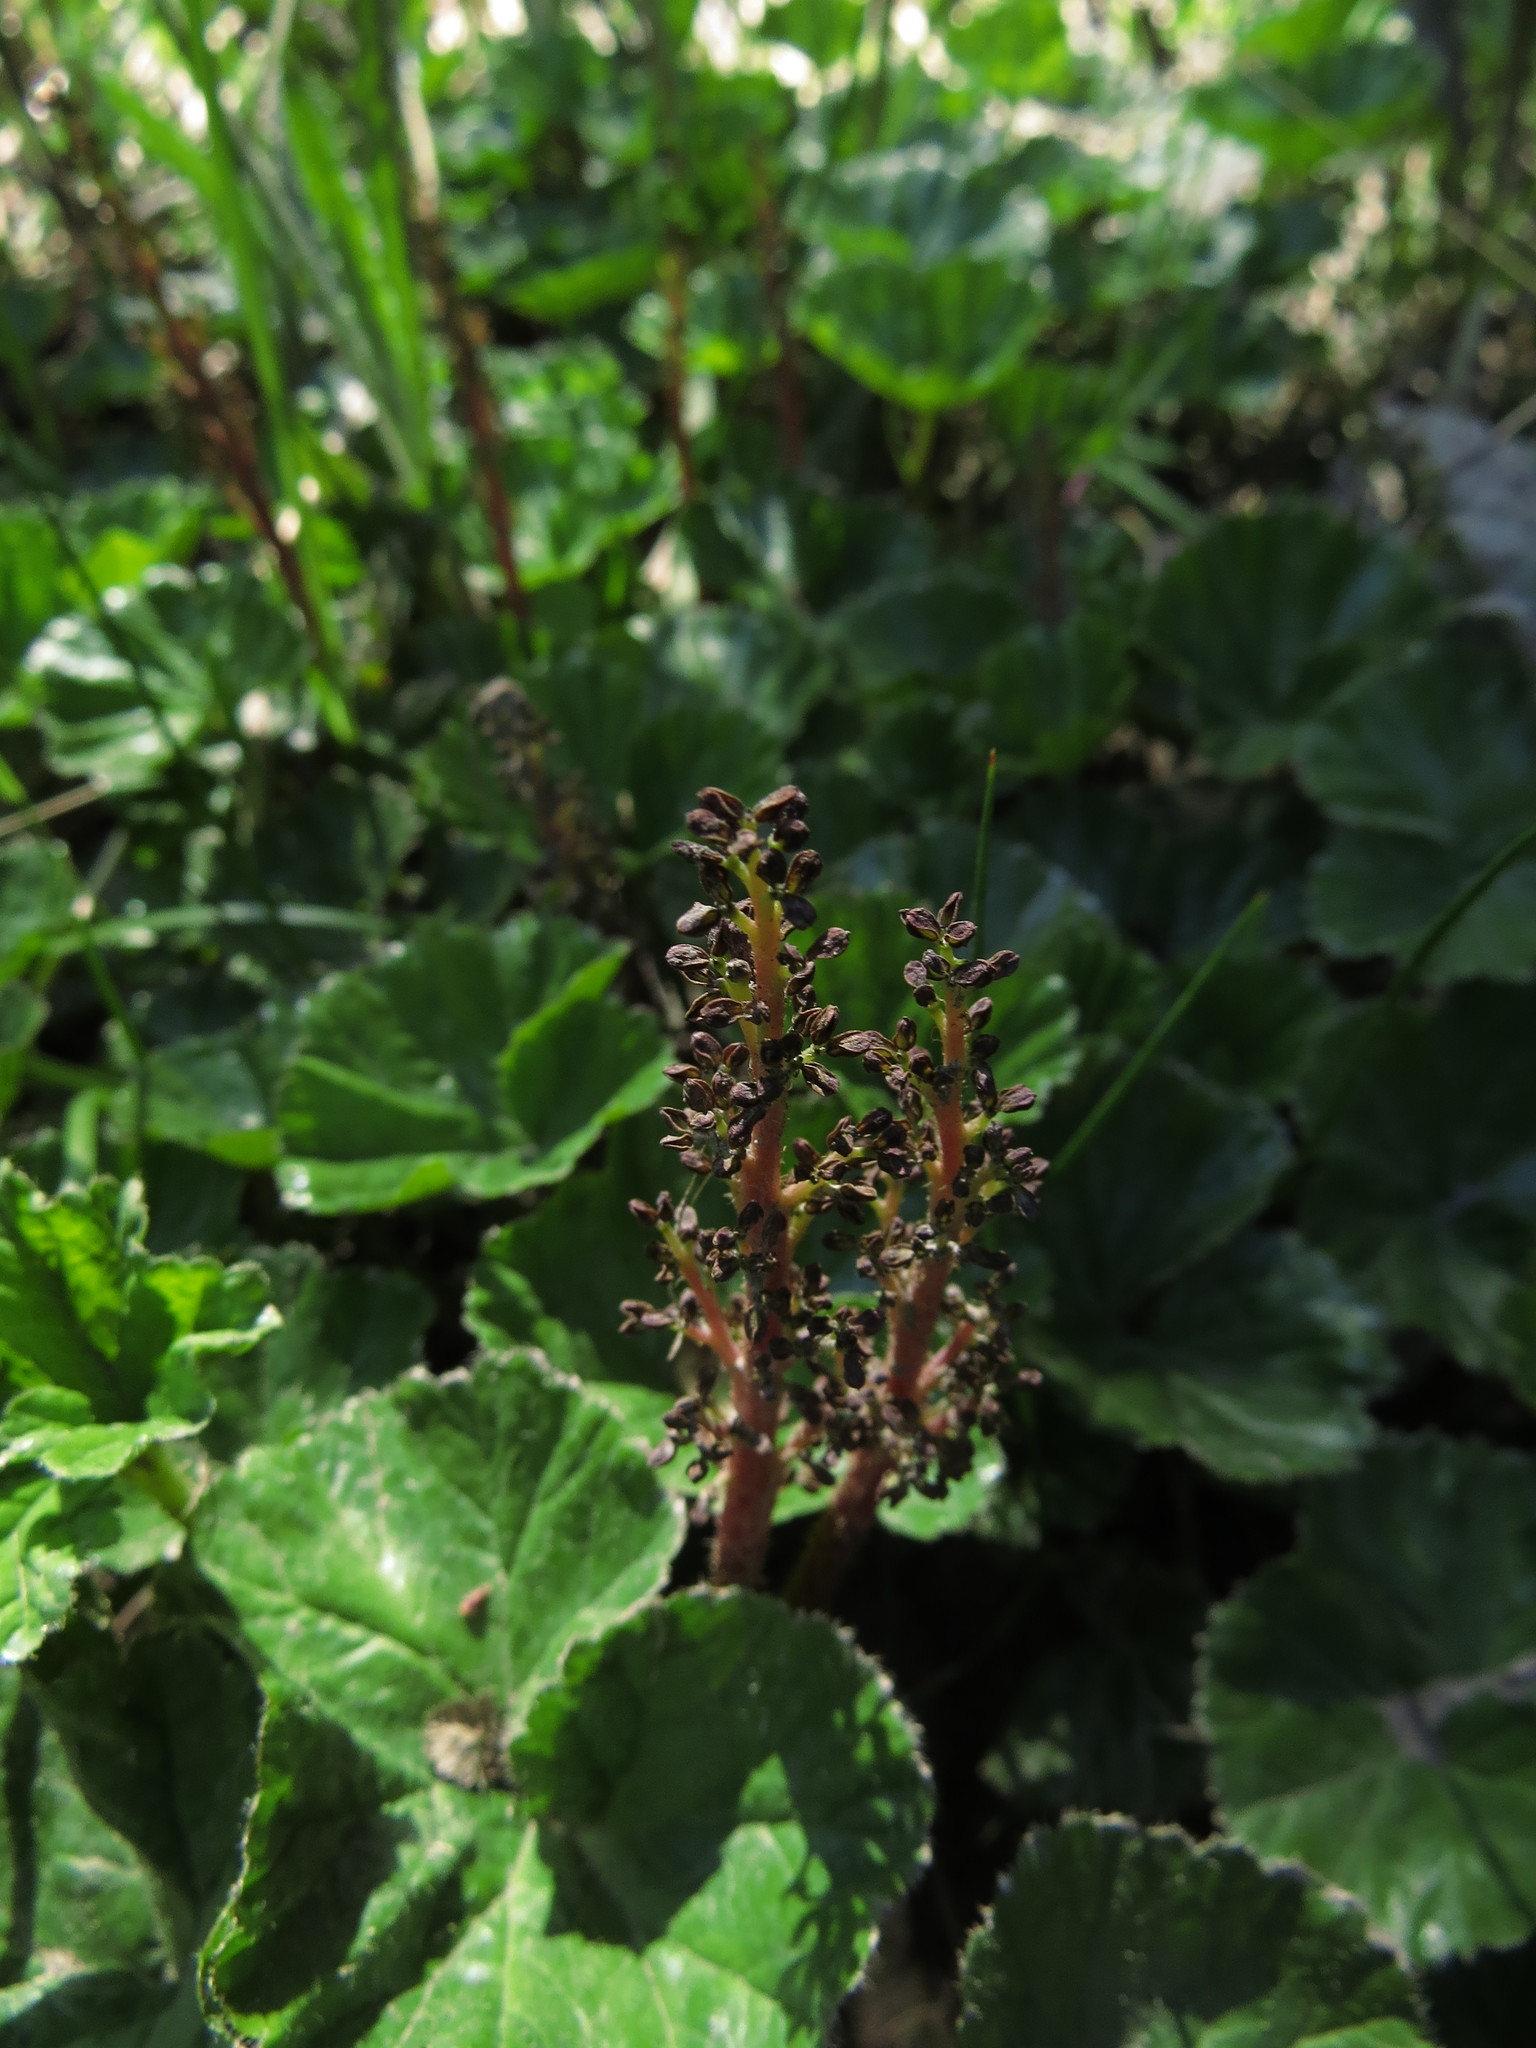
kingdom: Plantae
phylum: Tracheophyta
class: Magnoliopsida
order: Gunnerales
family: Gunneraceae
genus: Gunnera
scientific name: Gunnera magellanica
